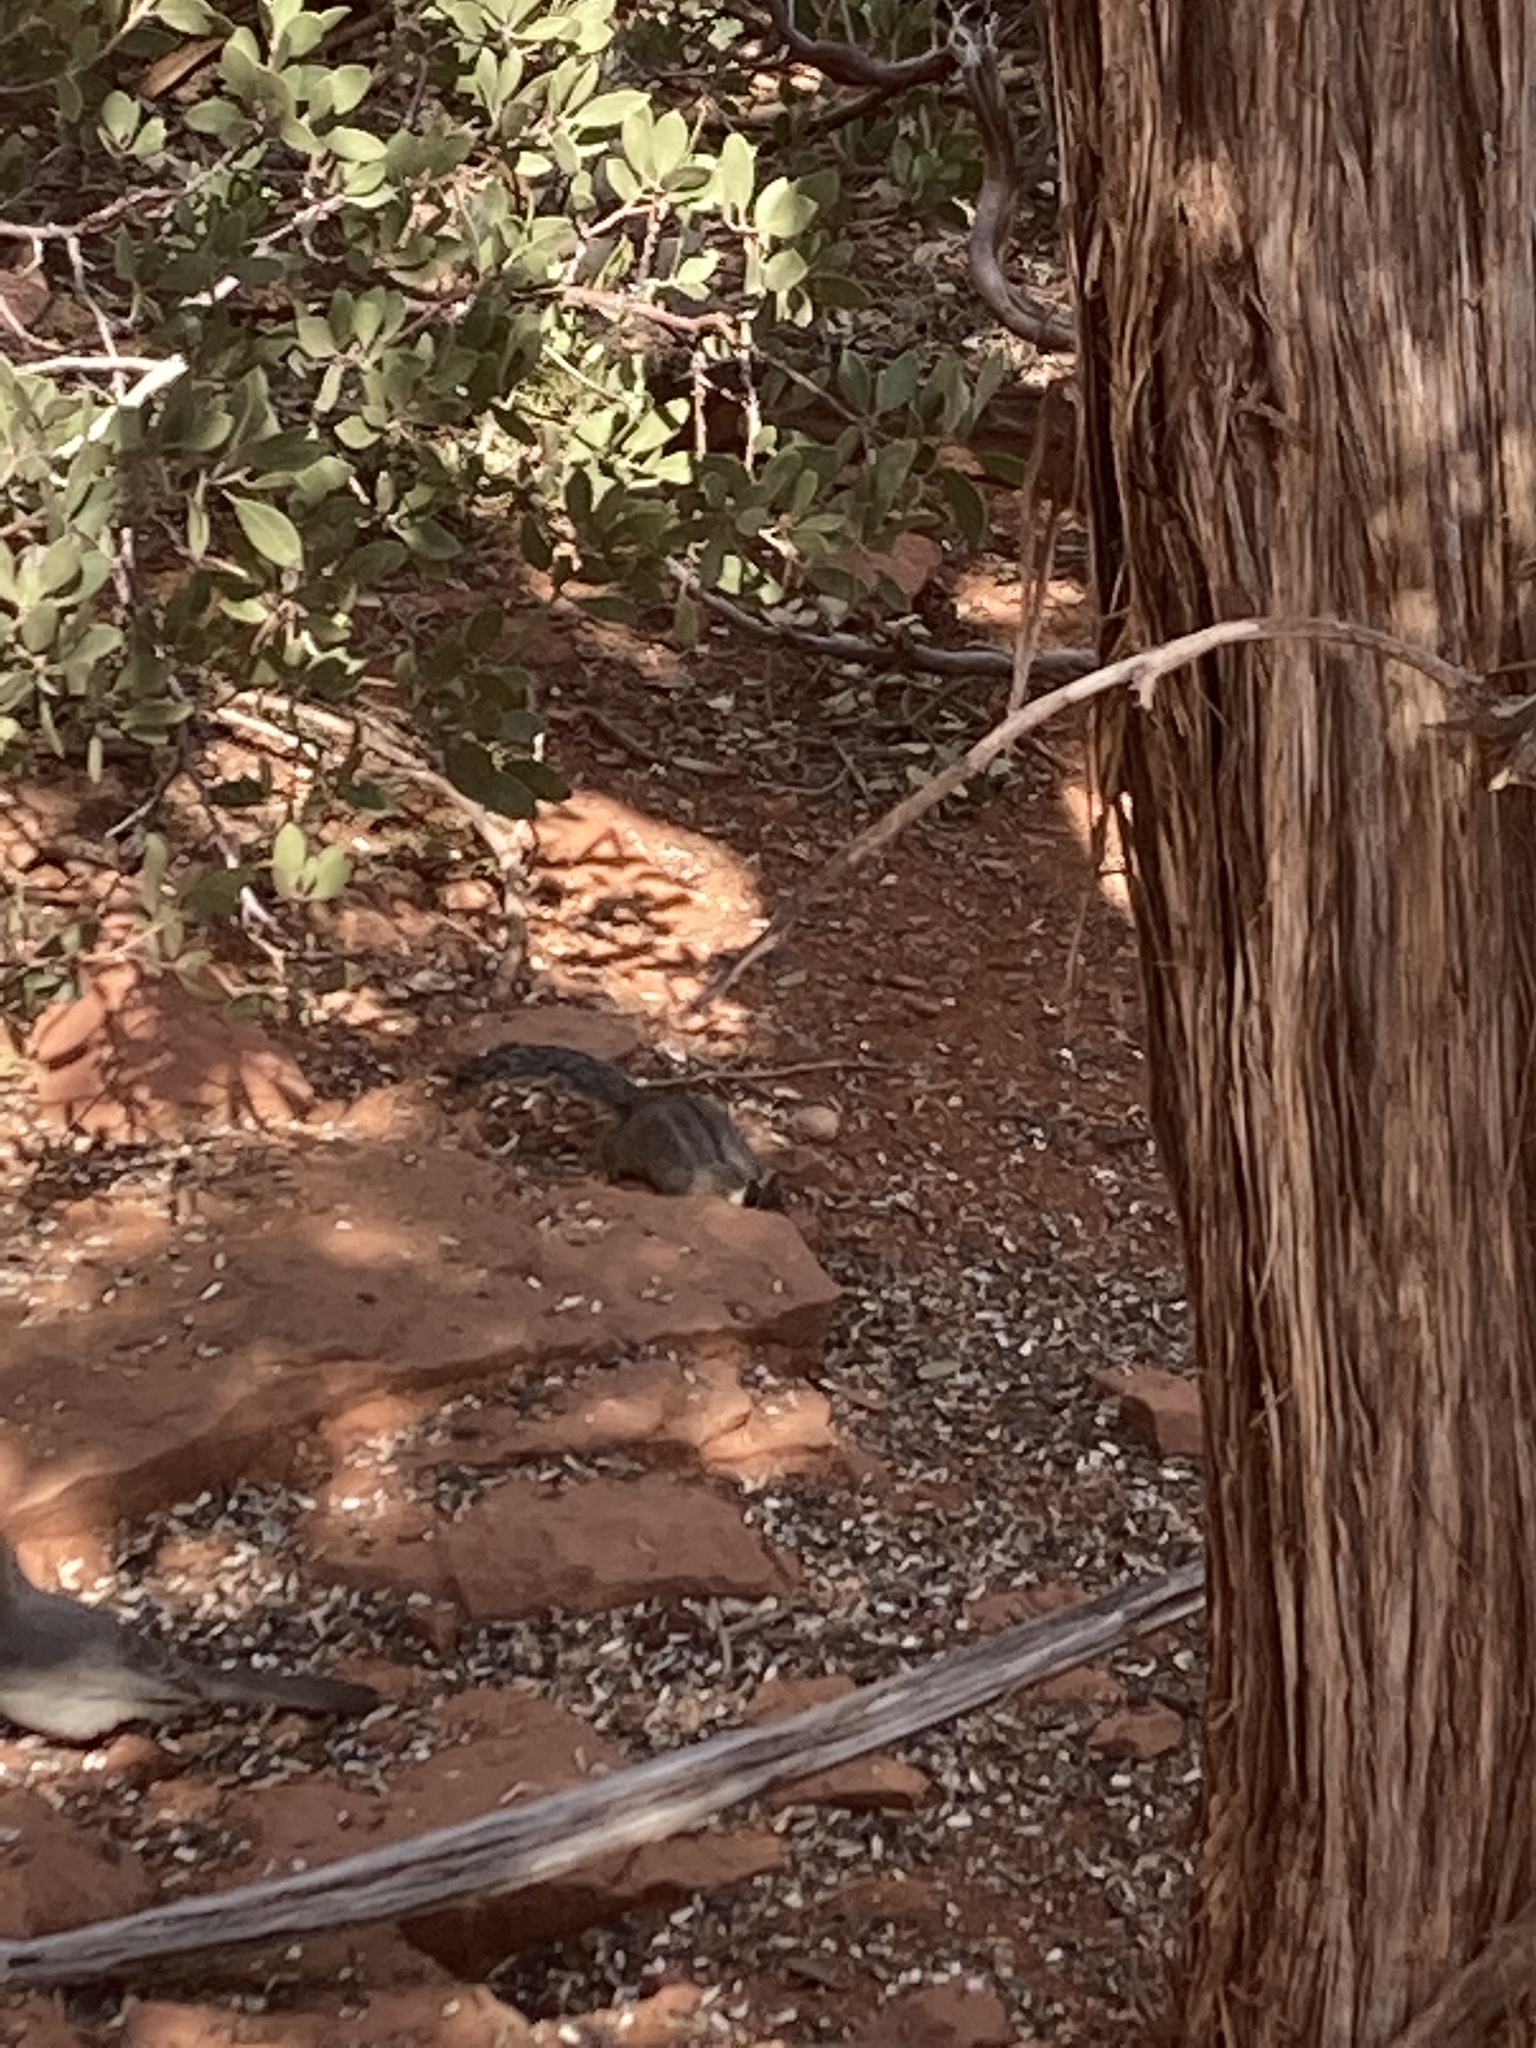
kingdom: Animalia
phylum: Chordata
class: Mammalia
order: Rodentia
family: Sciuridae
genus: Tamias
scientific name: Tamias dorsalis
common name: Cliff chipmunk
